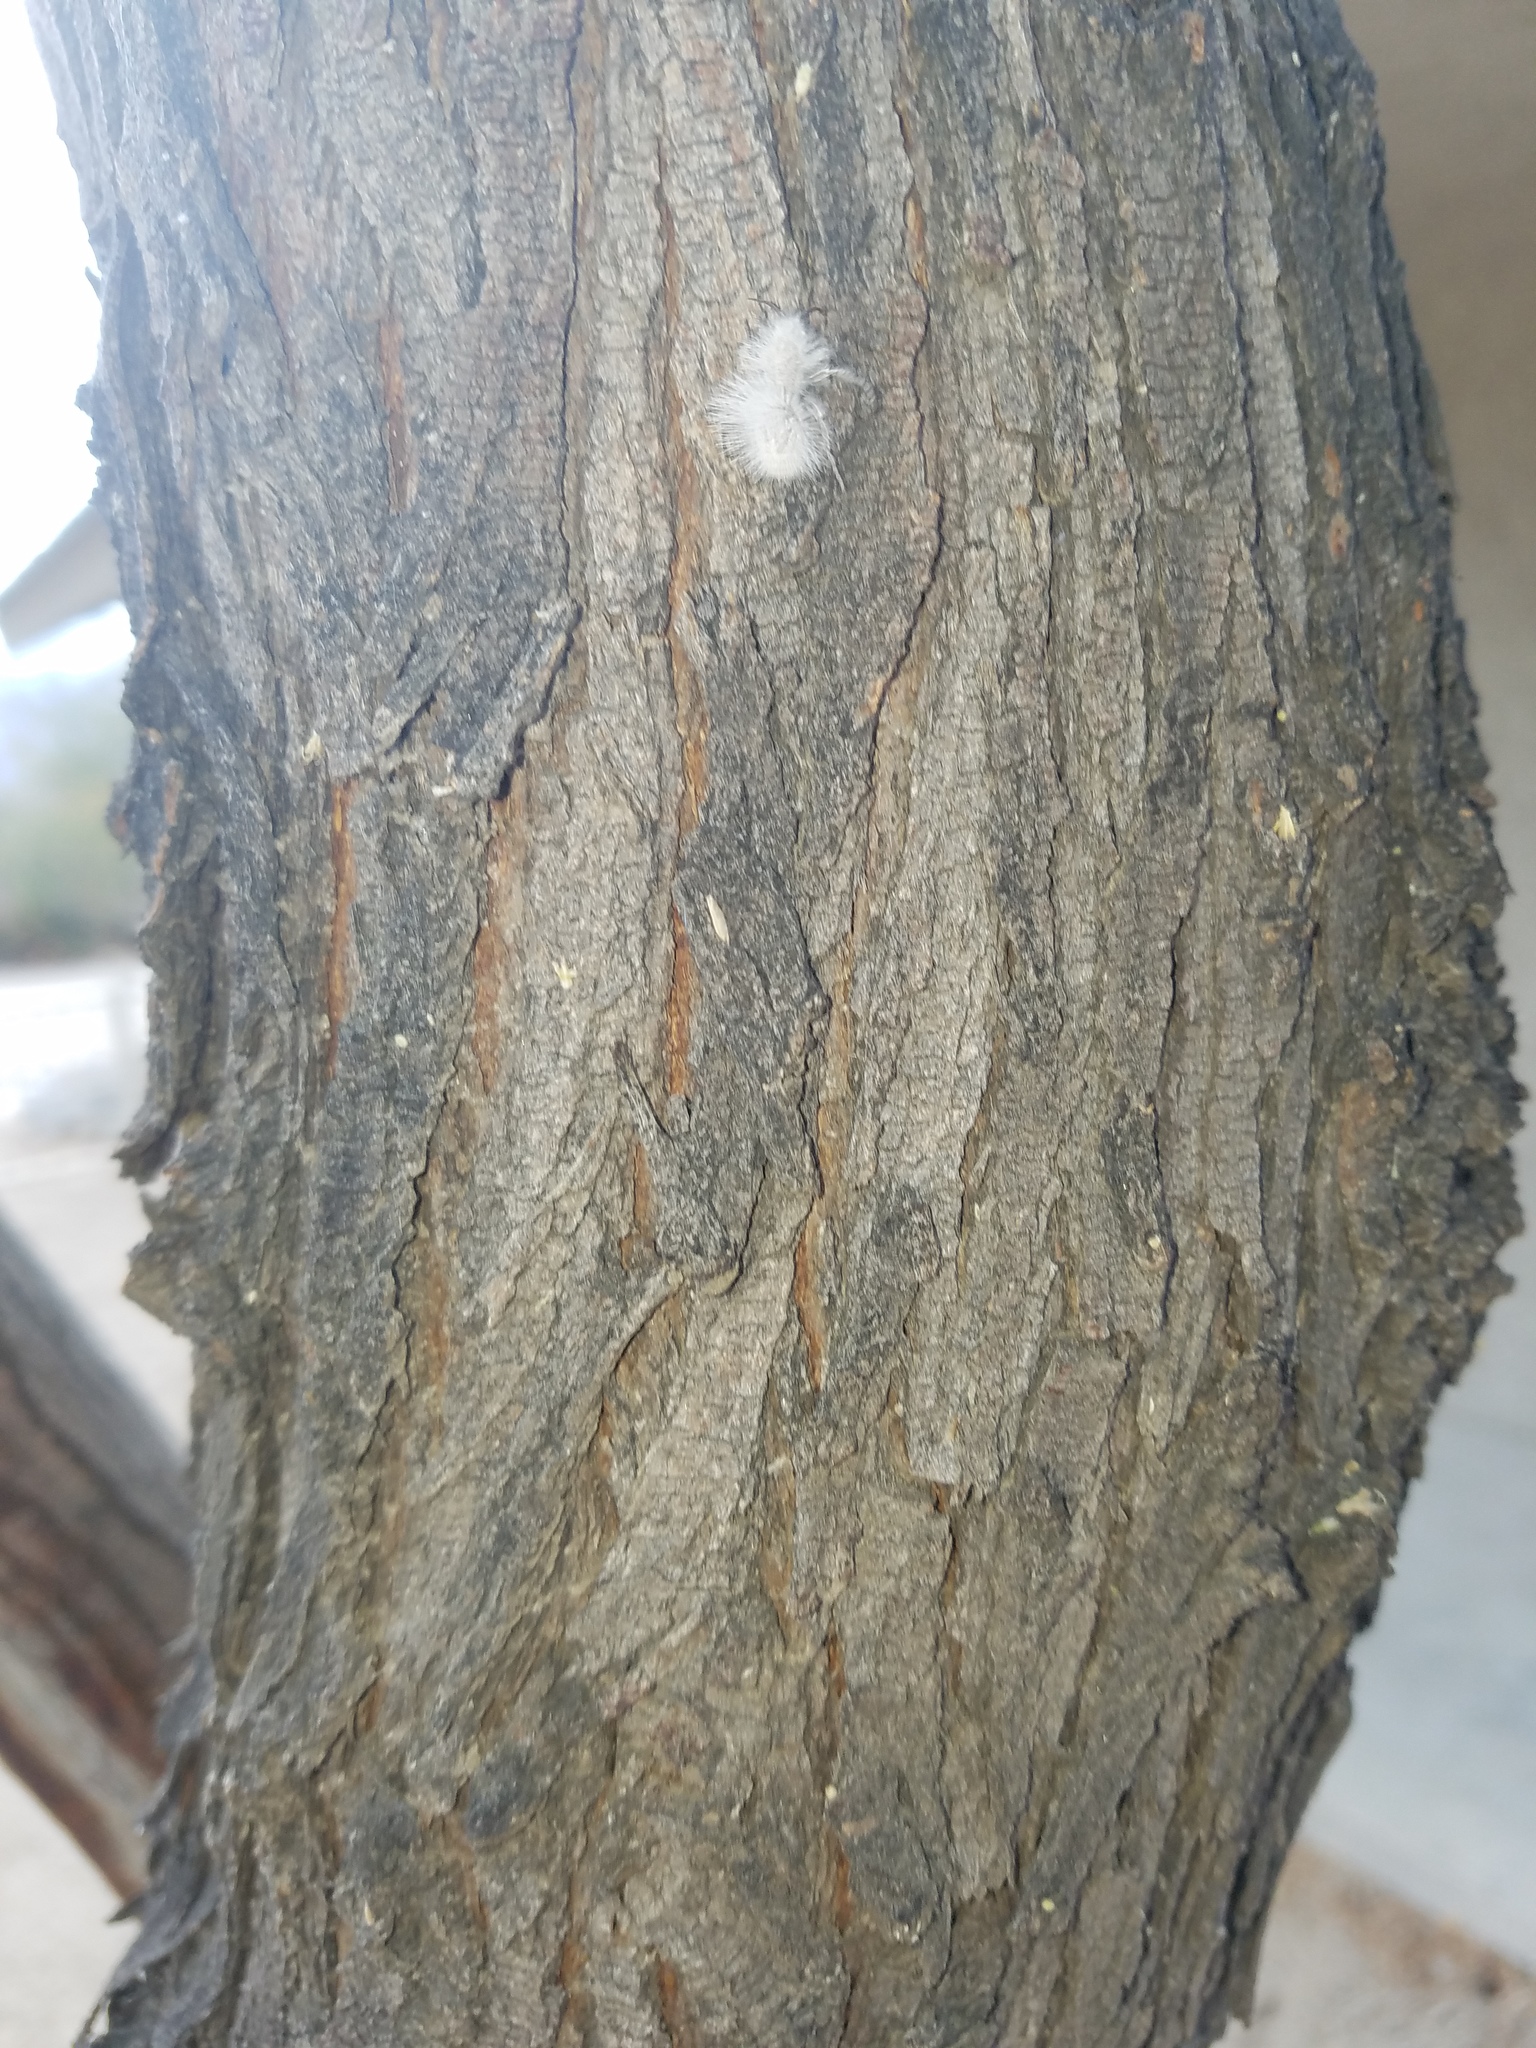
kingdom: Animalia
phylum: Arthropoda
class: Insecta
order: Hymenoptera
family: Mutillidae
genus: Dasymutilla
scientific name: Dasymutilla gloriosa
